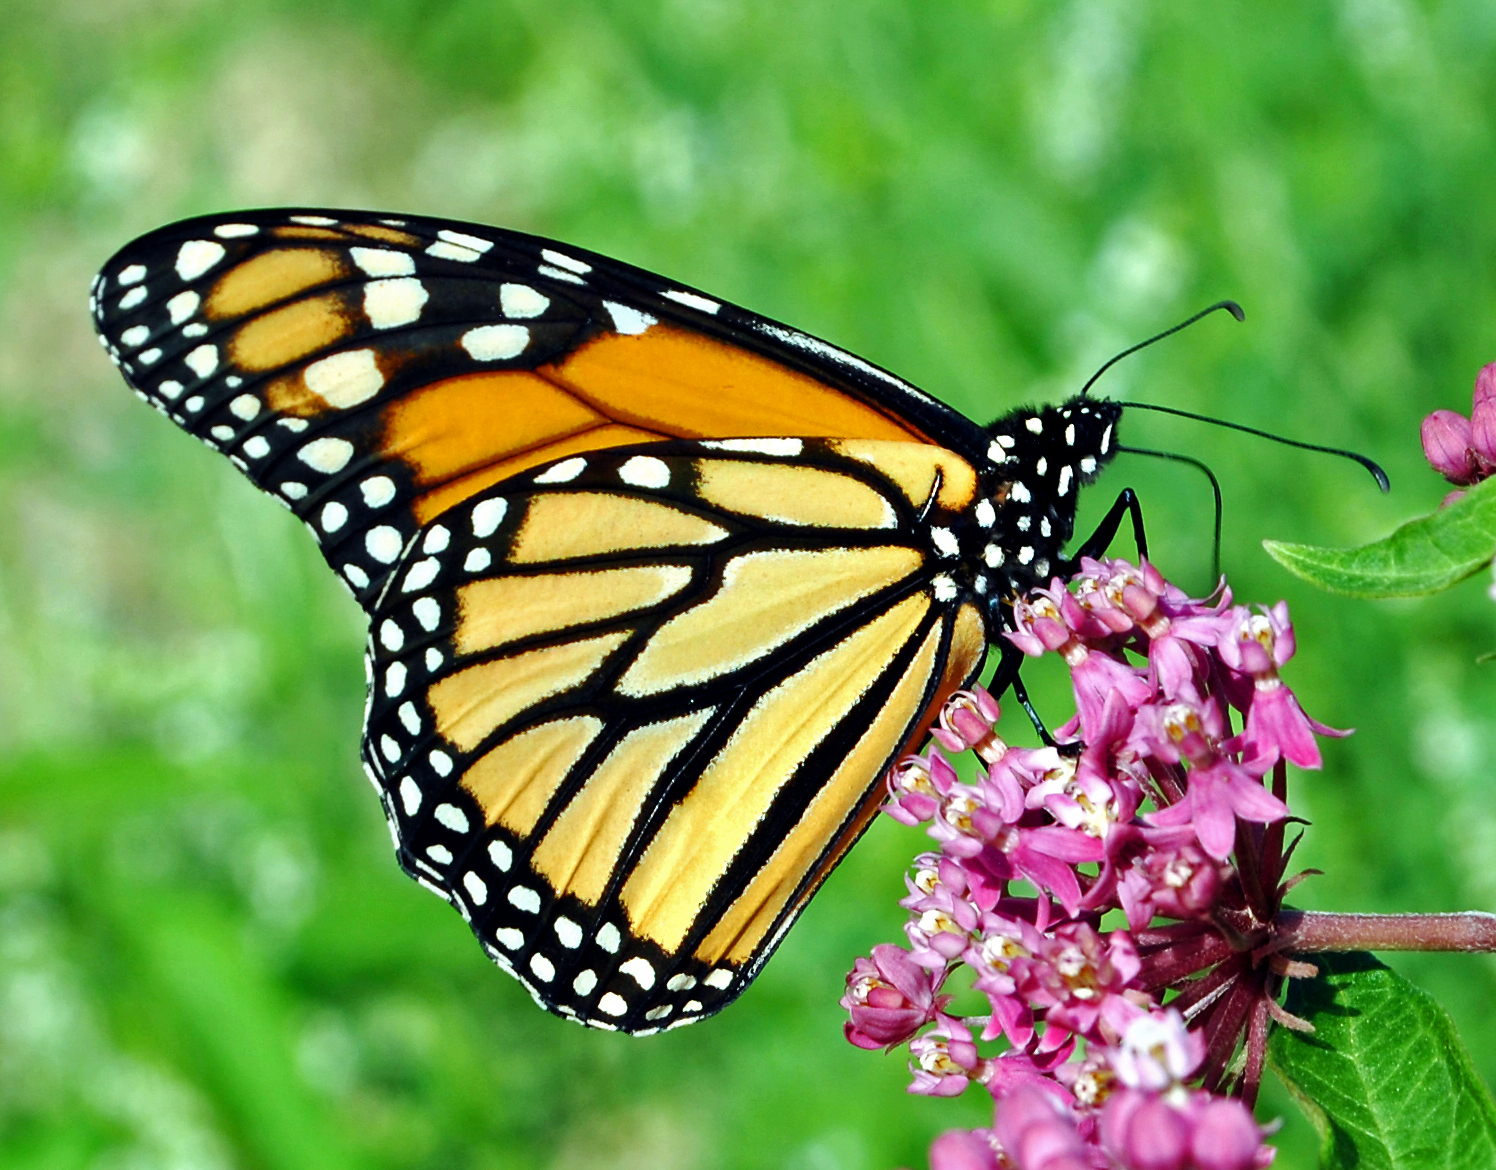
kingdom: Animalia
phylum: Arthropoda
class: Insecta
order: Lepidoptera
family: Nymphalidae
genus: Danaus
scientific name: Danaus plexippus
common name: Monarch
